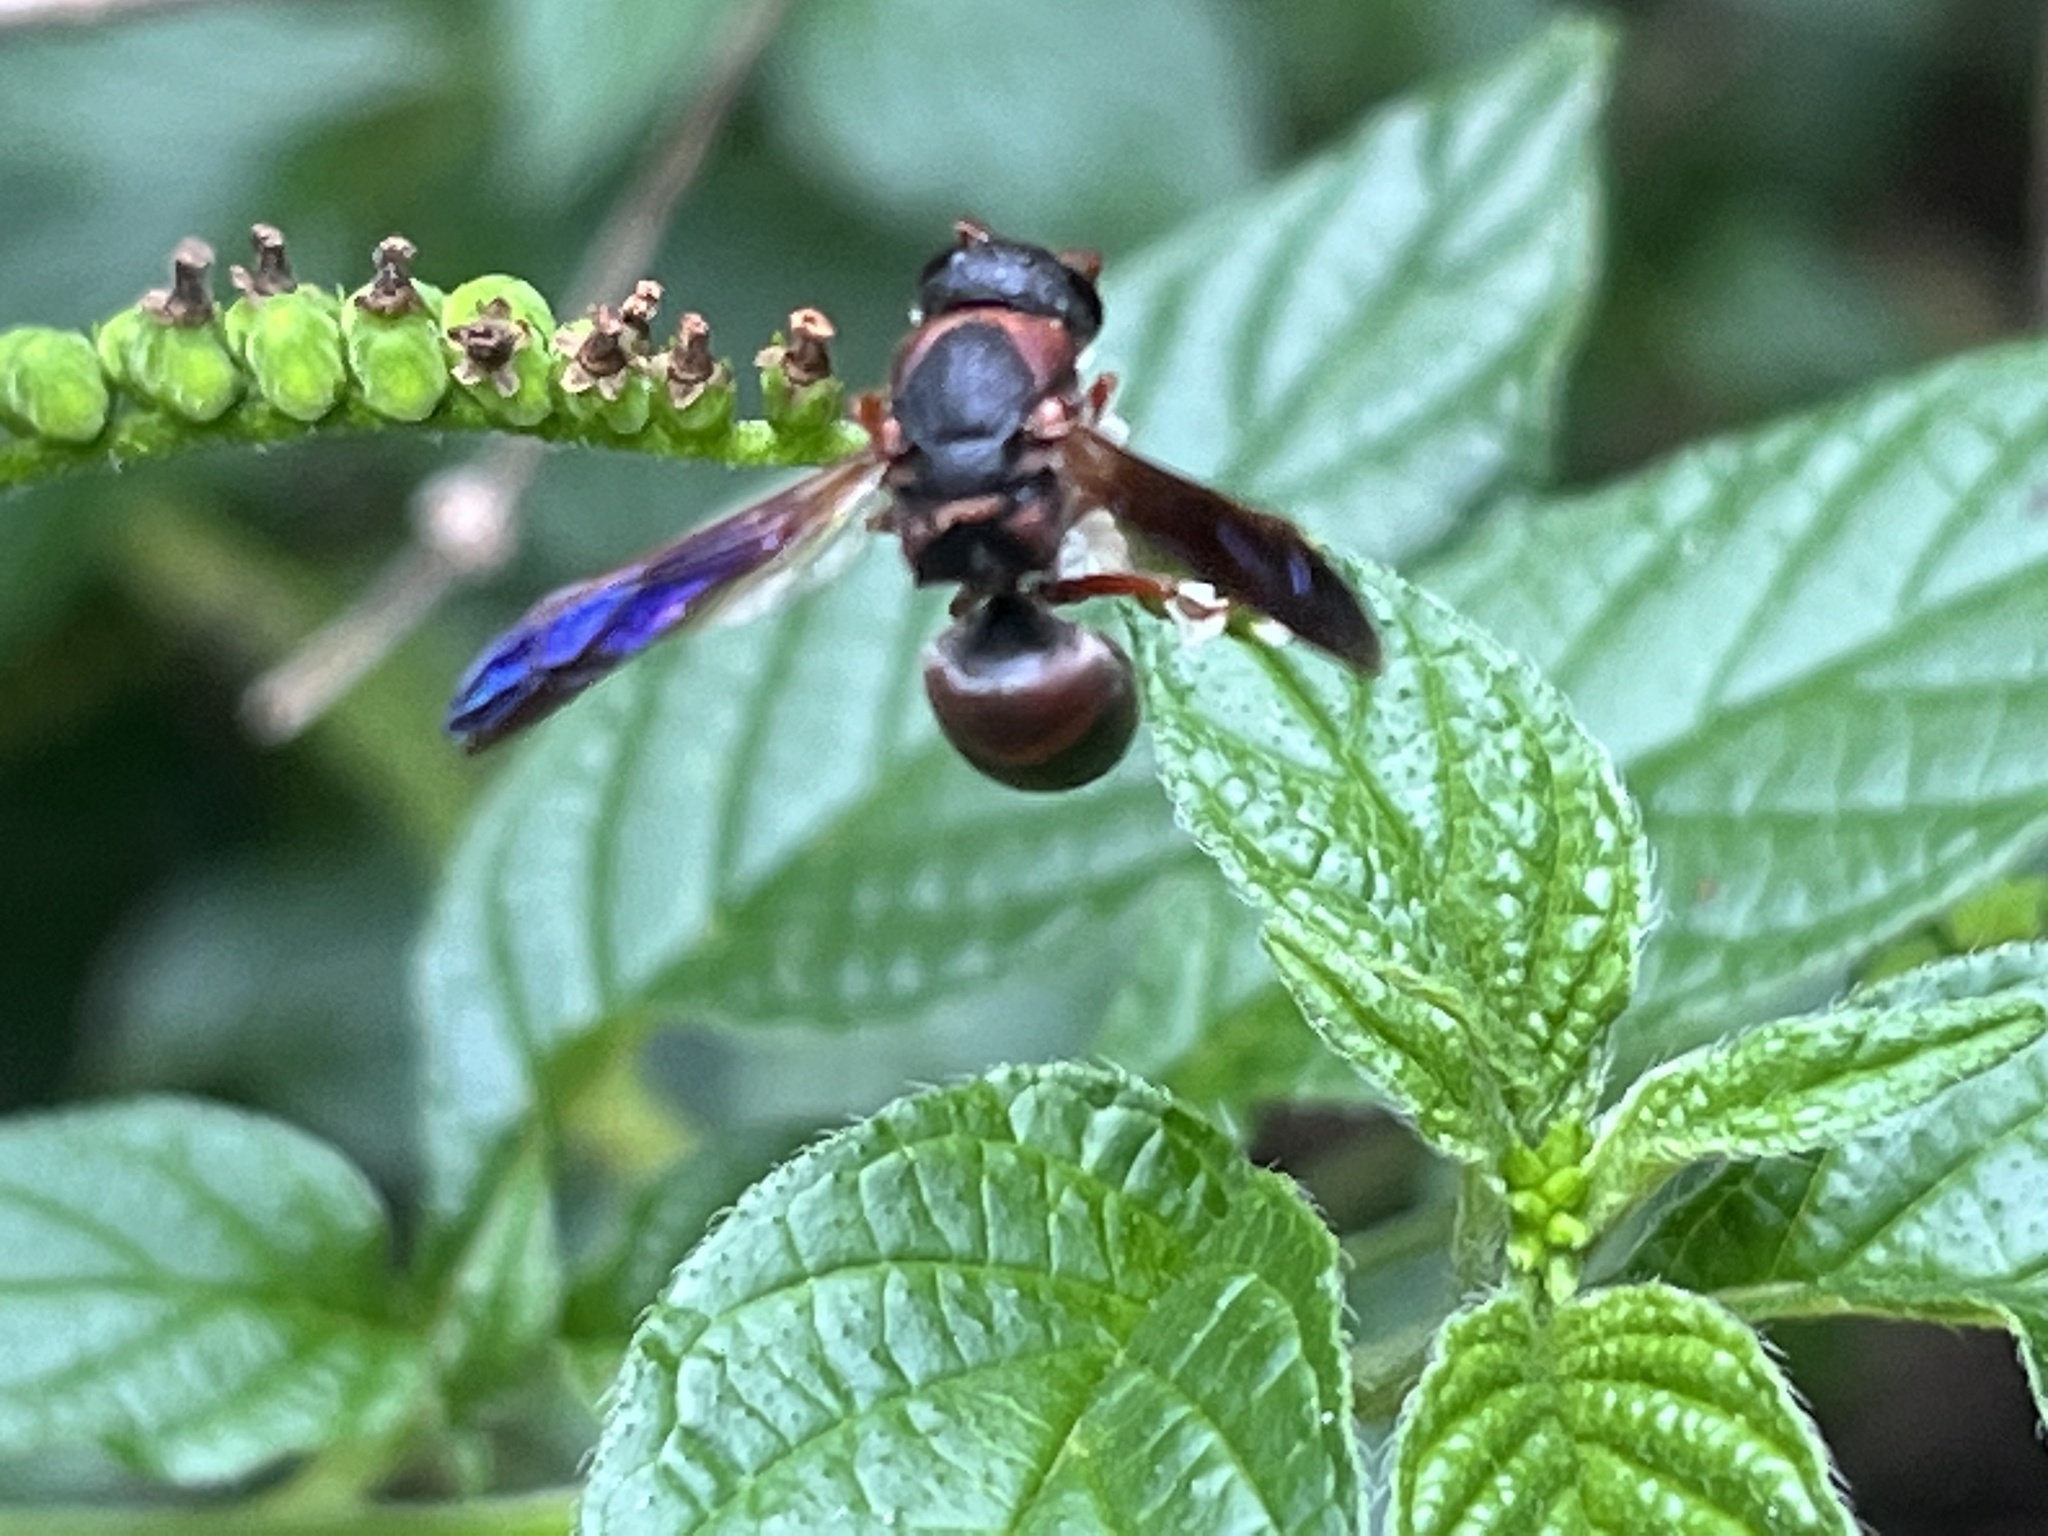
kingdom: Animalia
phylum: Arthropoda
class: Insecta
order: Hymenoptera
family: Eumenidae
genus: Pachodynerus
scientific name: Pachodynerus erynnis
